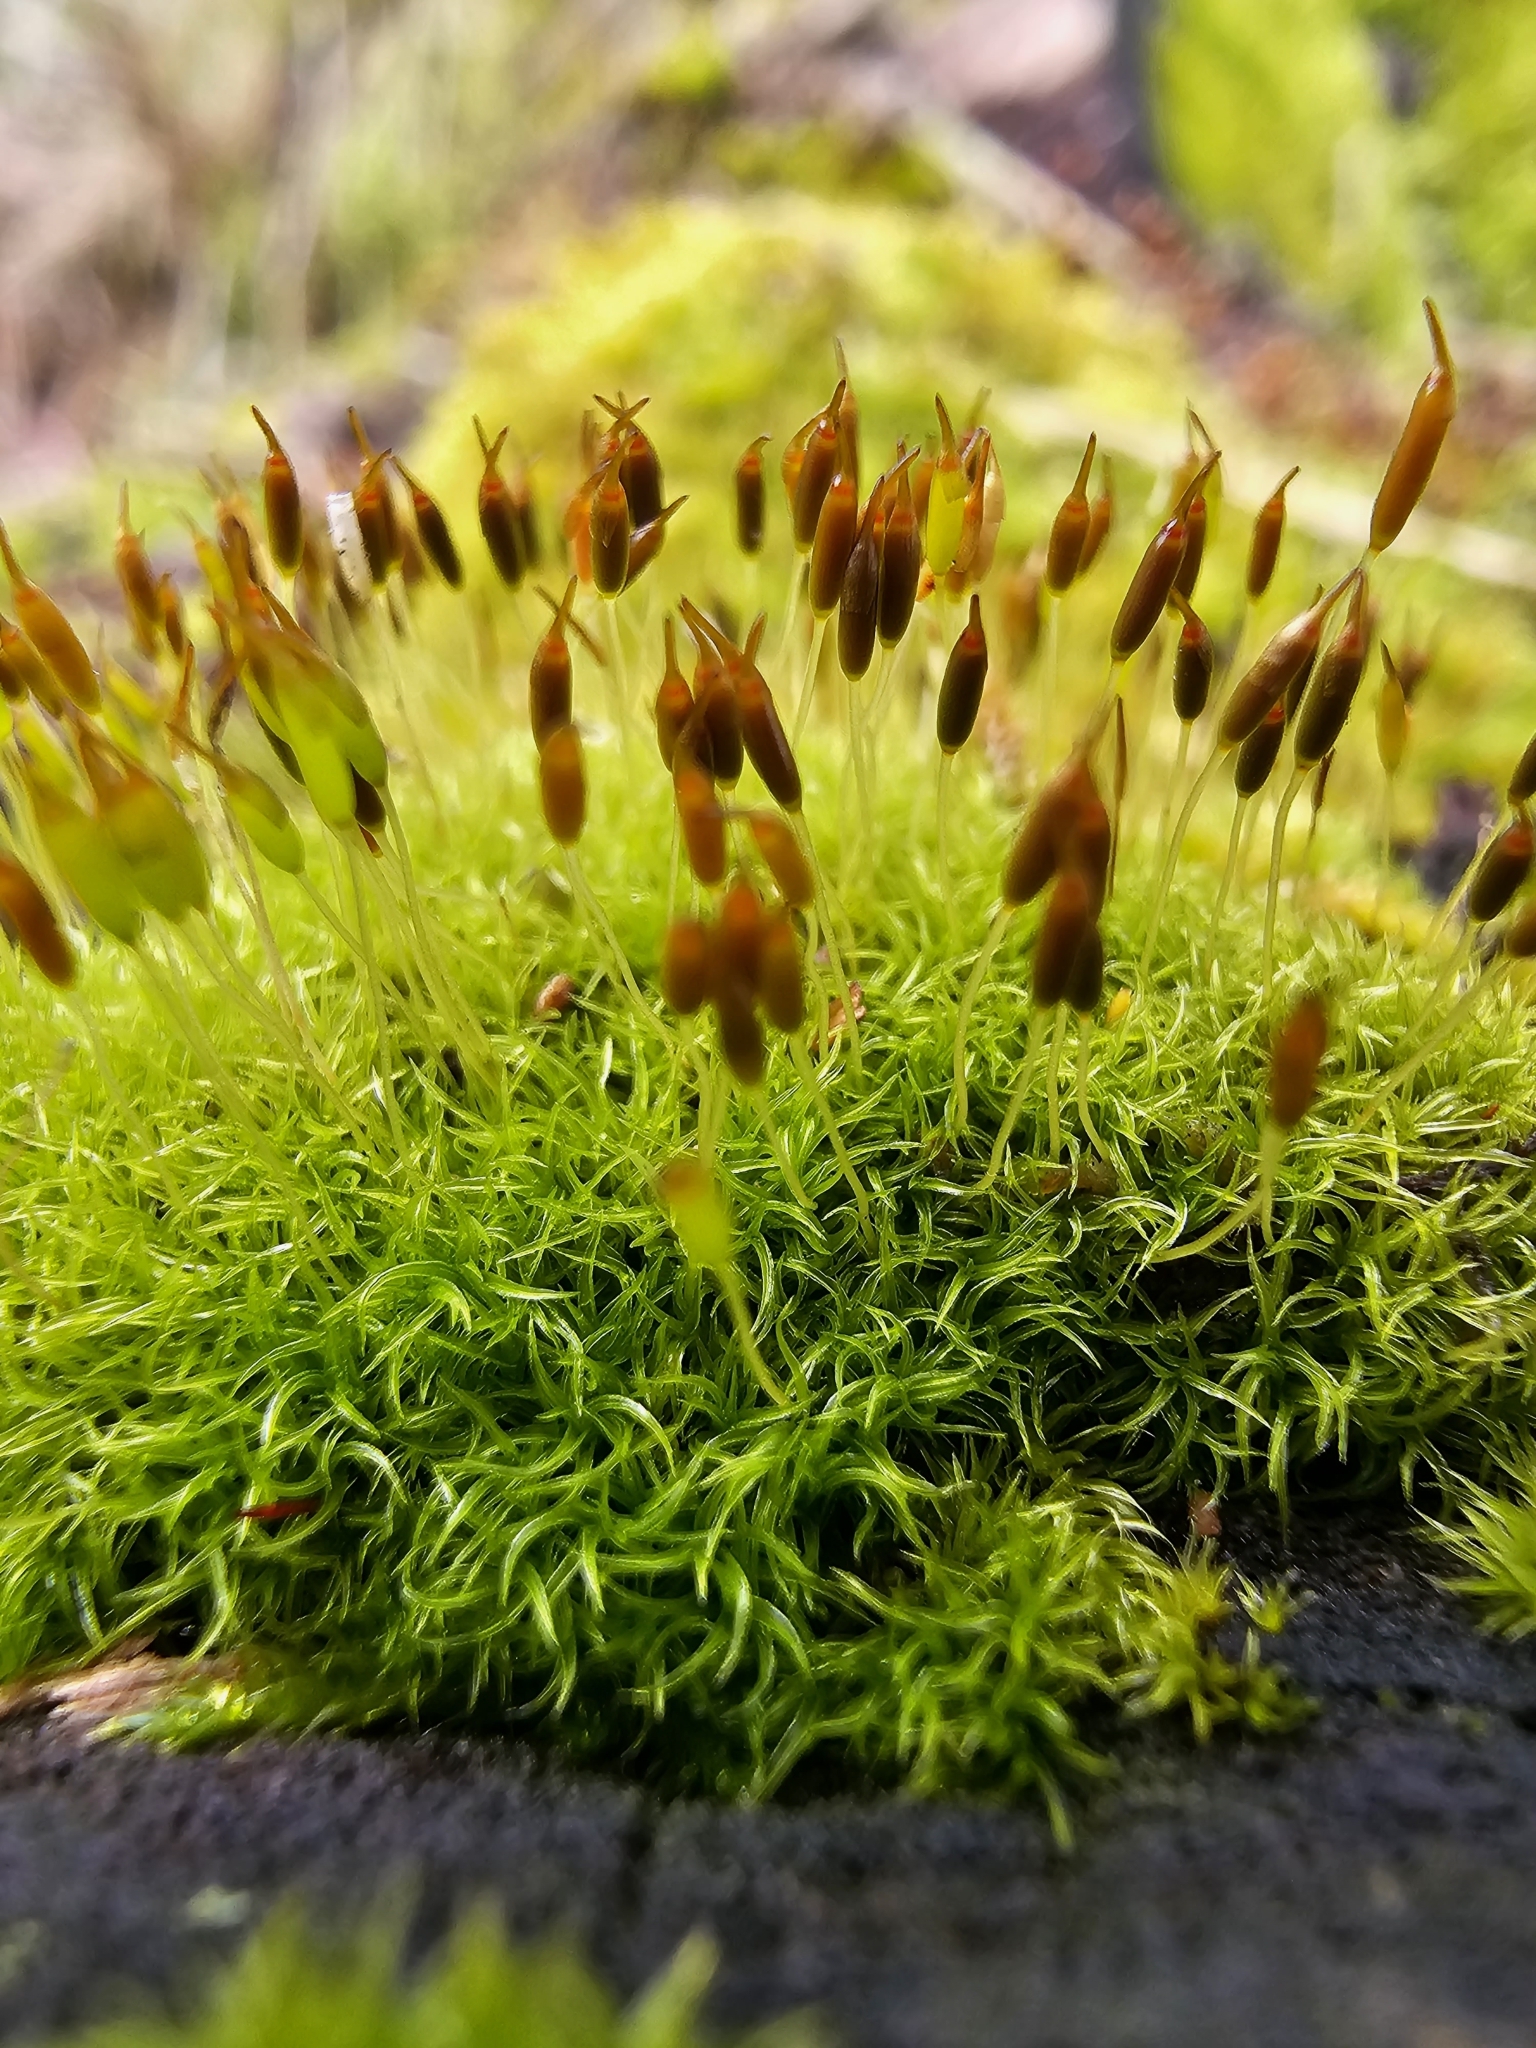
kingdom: Plantae
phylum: Bryophyta
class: Bryopsida
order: Dicranales
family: Rhabdoweisiaceae
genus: Dicranoweisia
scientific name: Dicranoweisia cirrata
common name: Common pincushion
